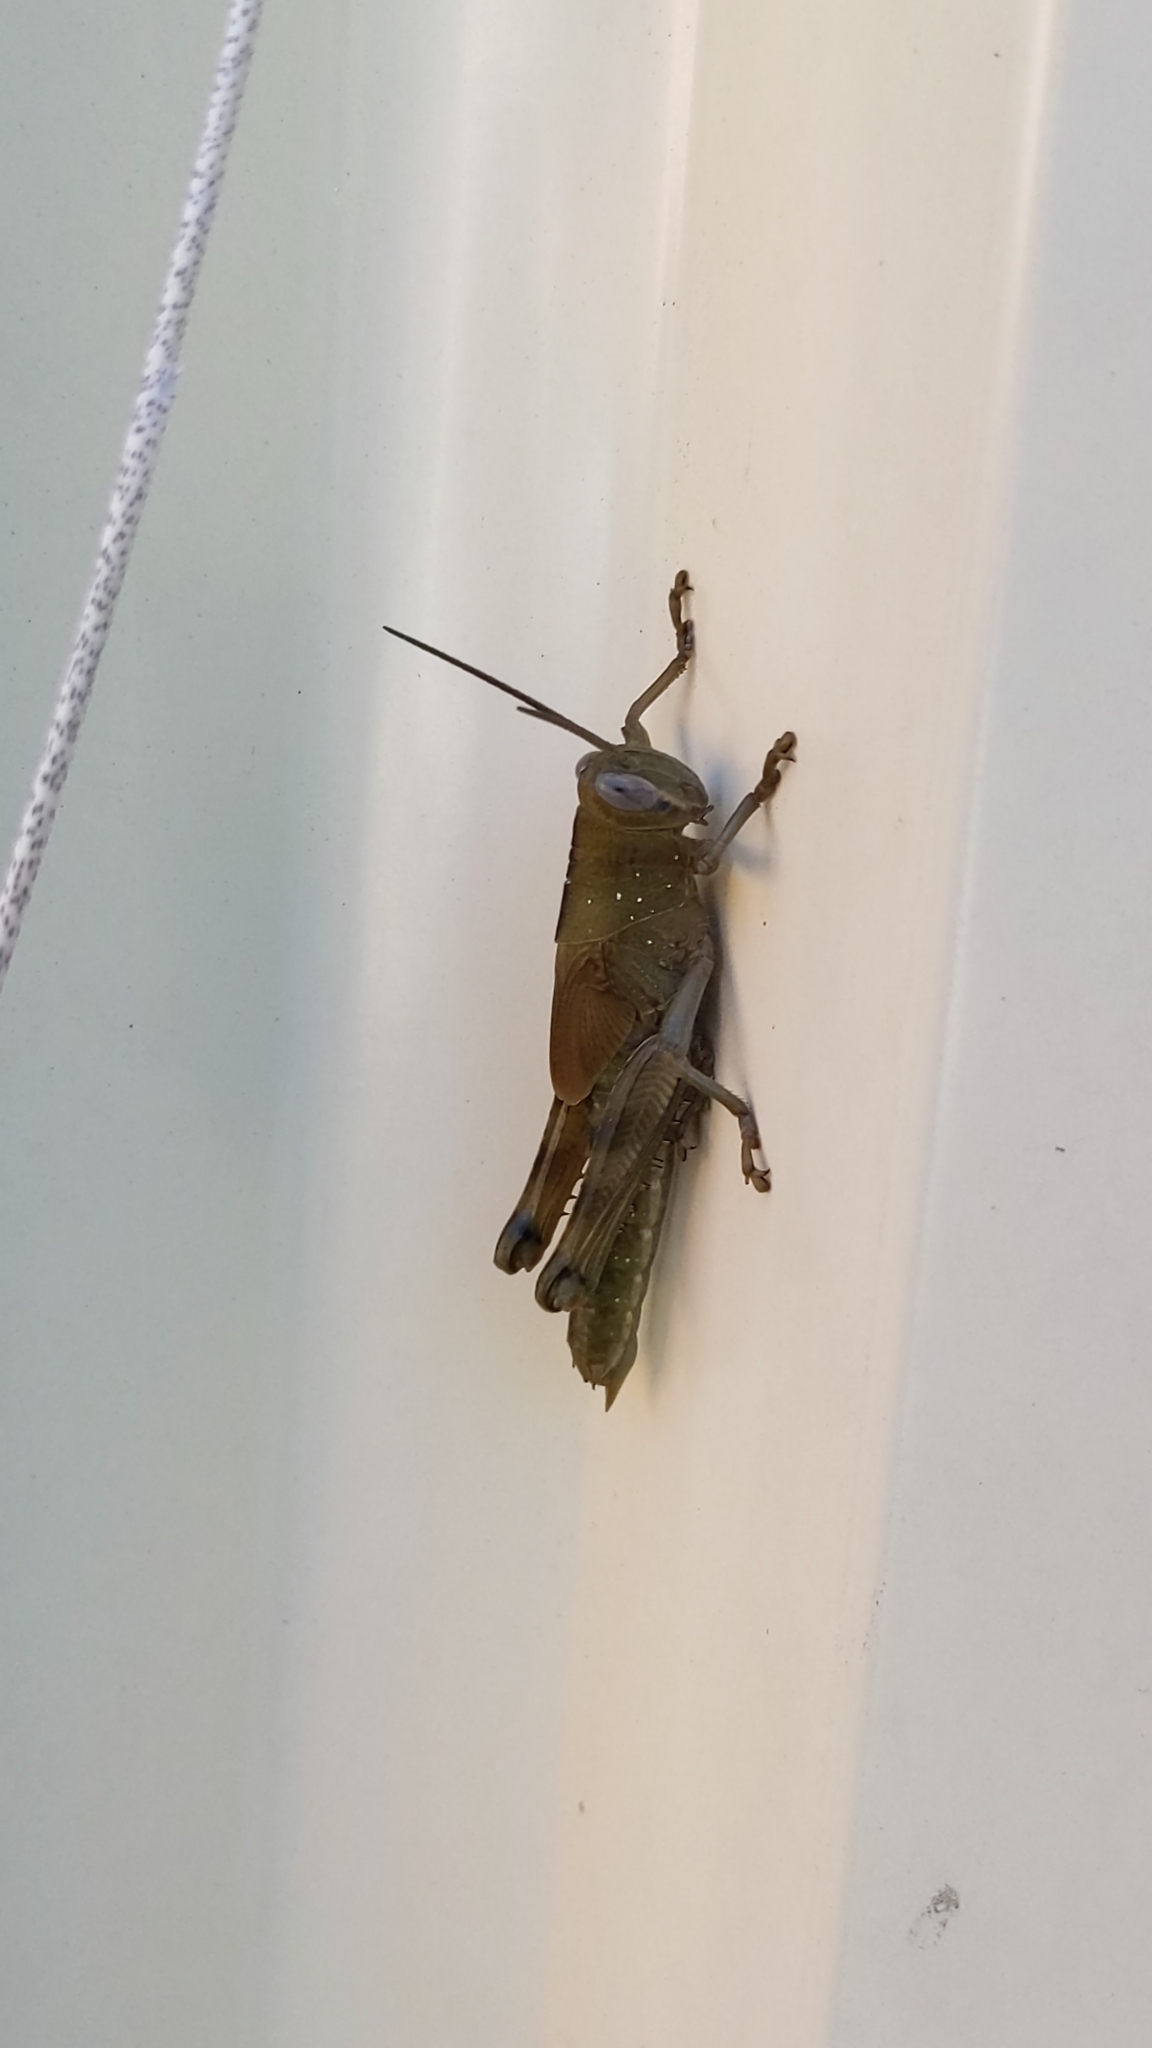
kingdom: Animalia
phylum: Arthropoda
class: Insecta
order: Orthoptera
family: Acrididae
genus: Valanga
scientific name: Valanga irregularis
